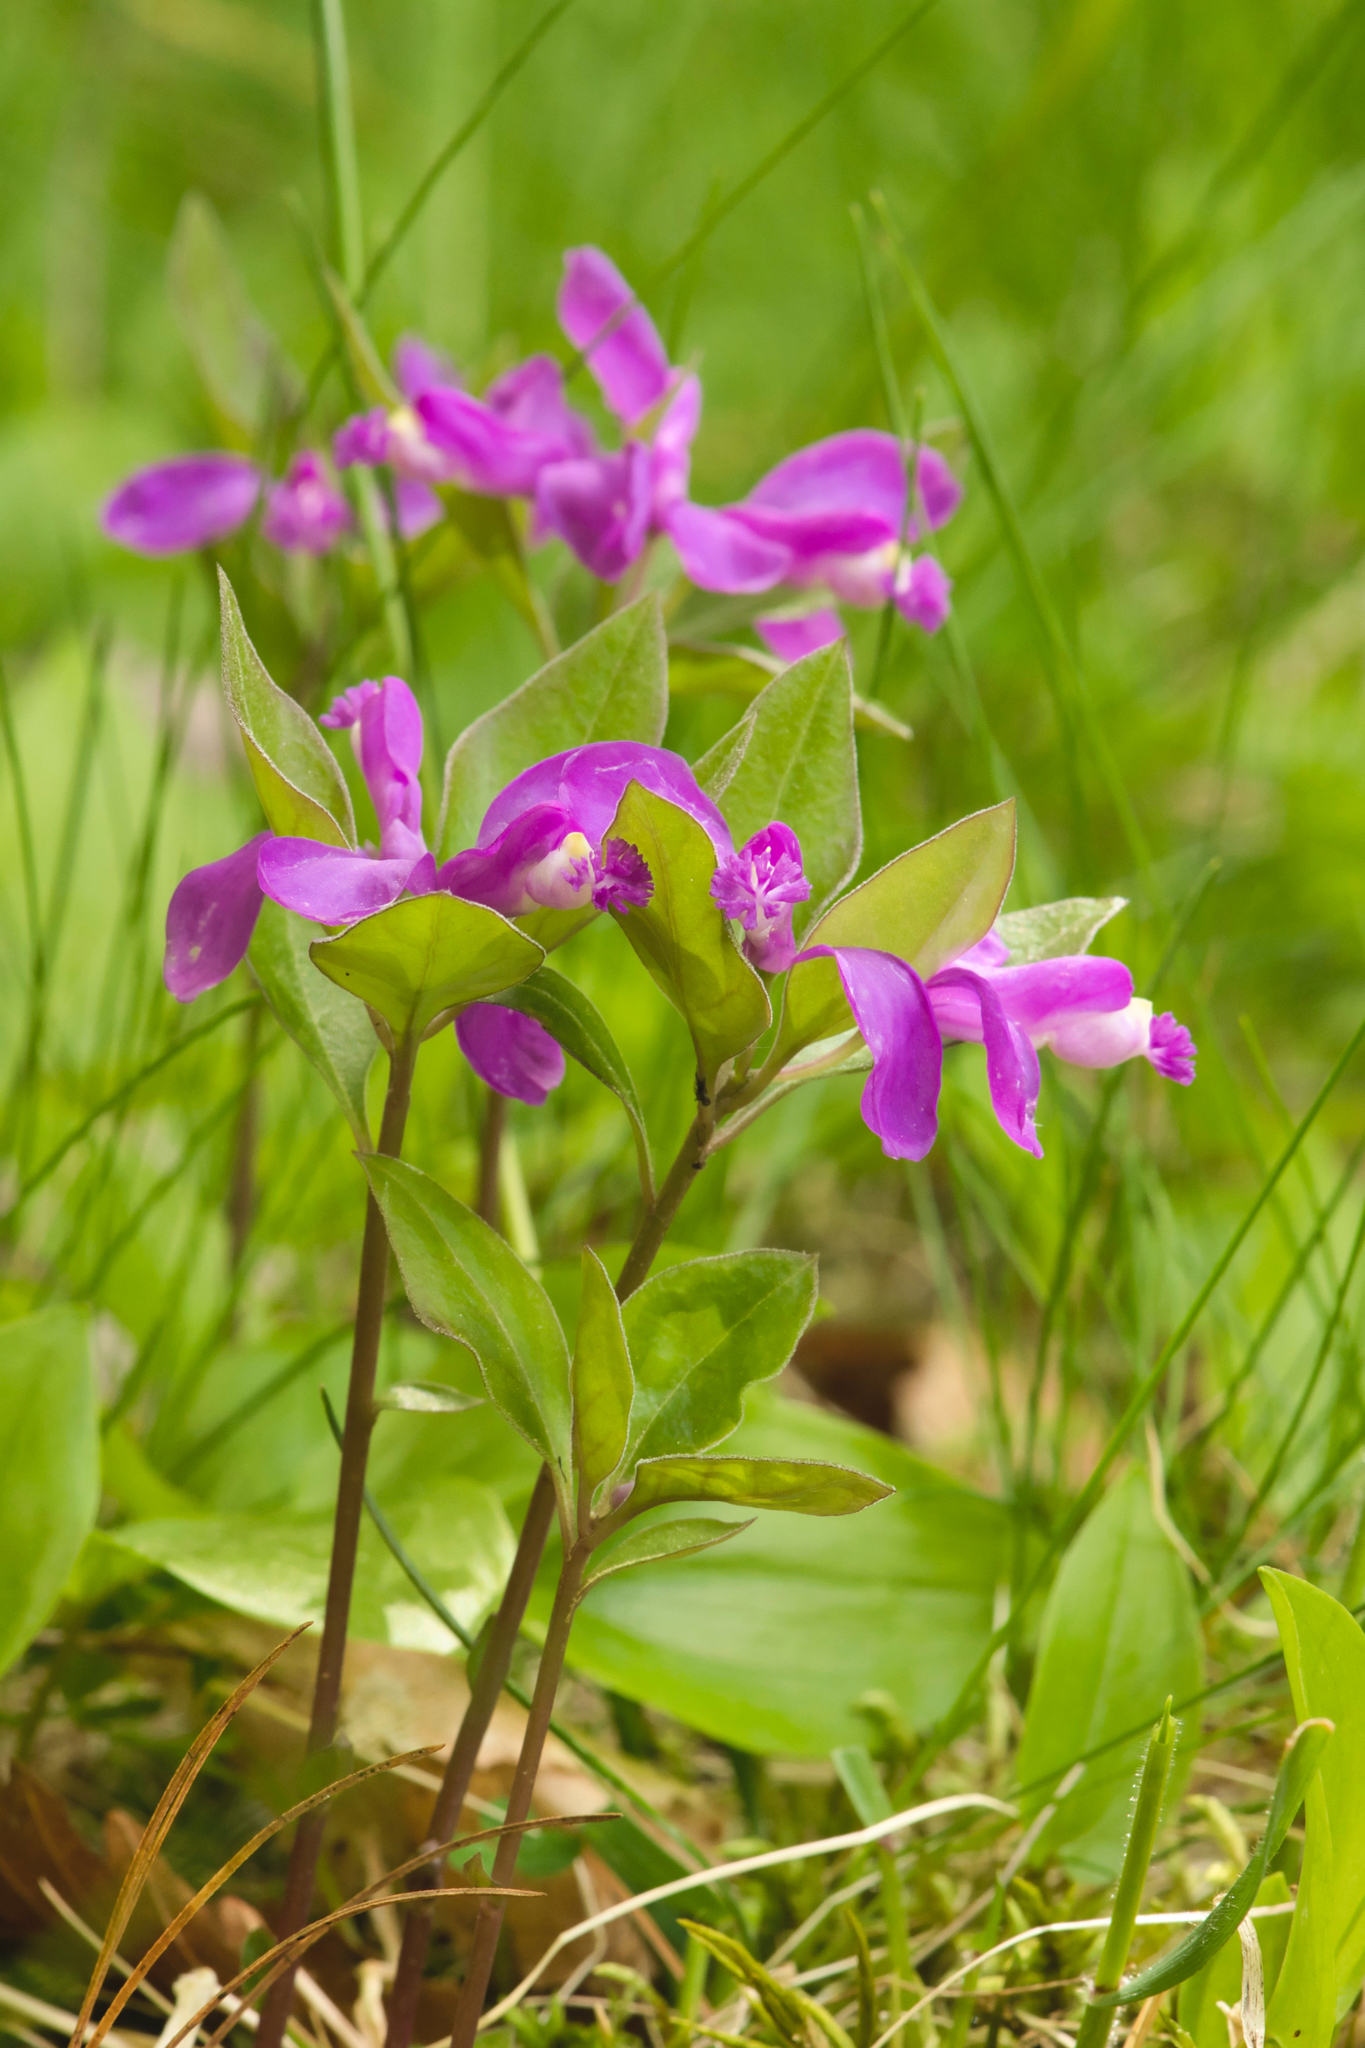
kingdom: Plantae
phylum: Tracheophyta
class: Magnoliopsida
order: Fabales
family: Polygalaceae
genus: Polygaloides
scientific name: Polygaloides paucifolia
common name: Bird-on-the-wing
